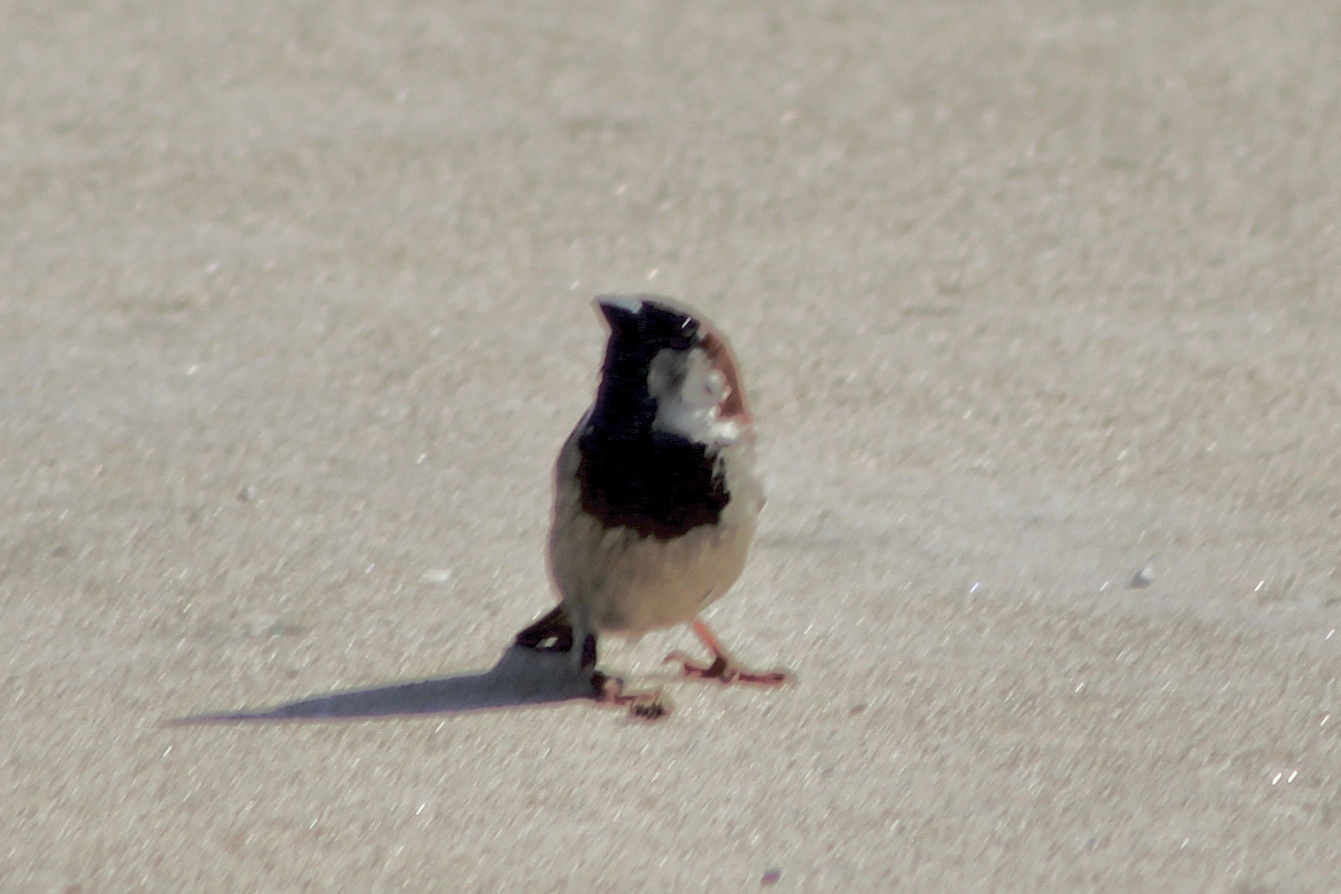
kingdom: Animalia
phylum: Chordata
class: Aves
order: Passeriformes
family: Passeridae
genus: Passer
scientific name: Passer domesticus
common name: House sparrow
